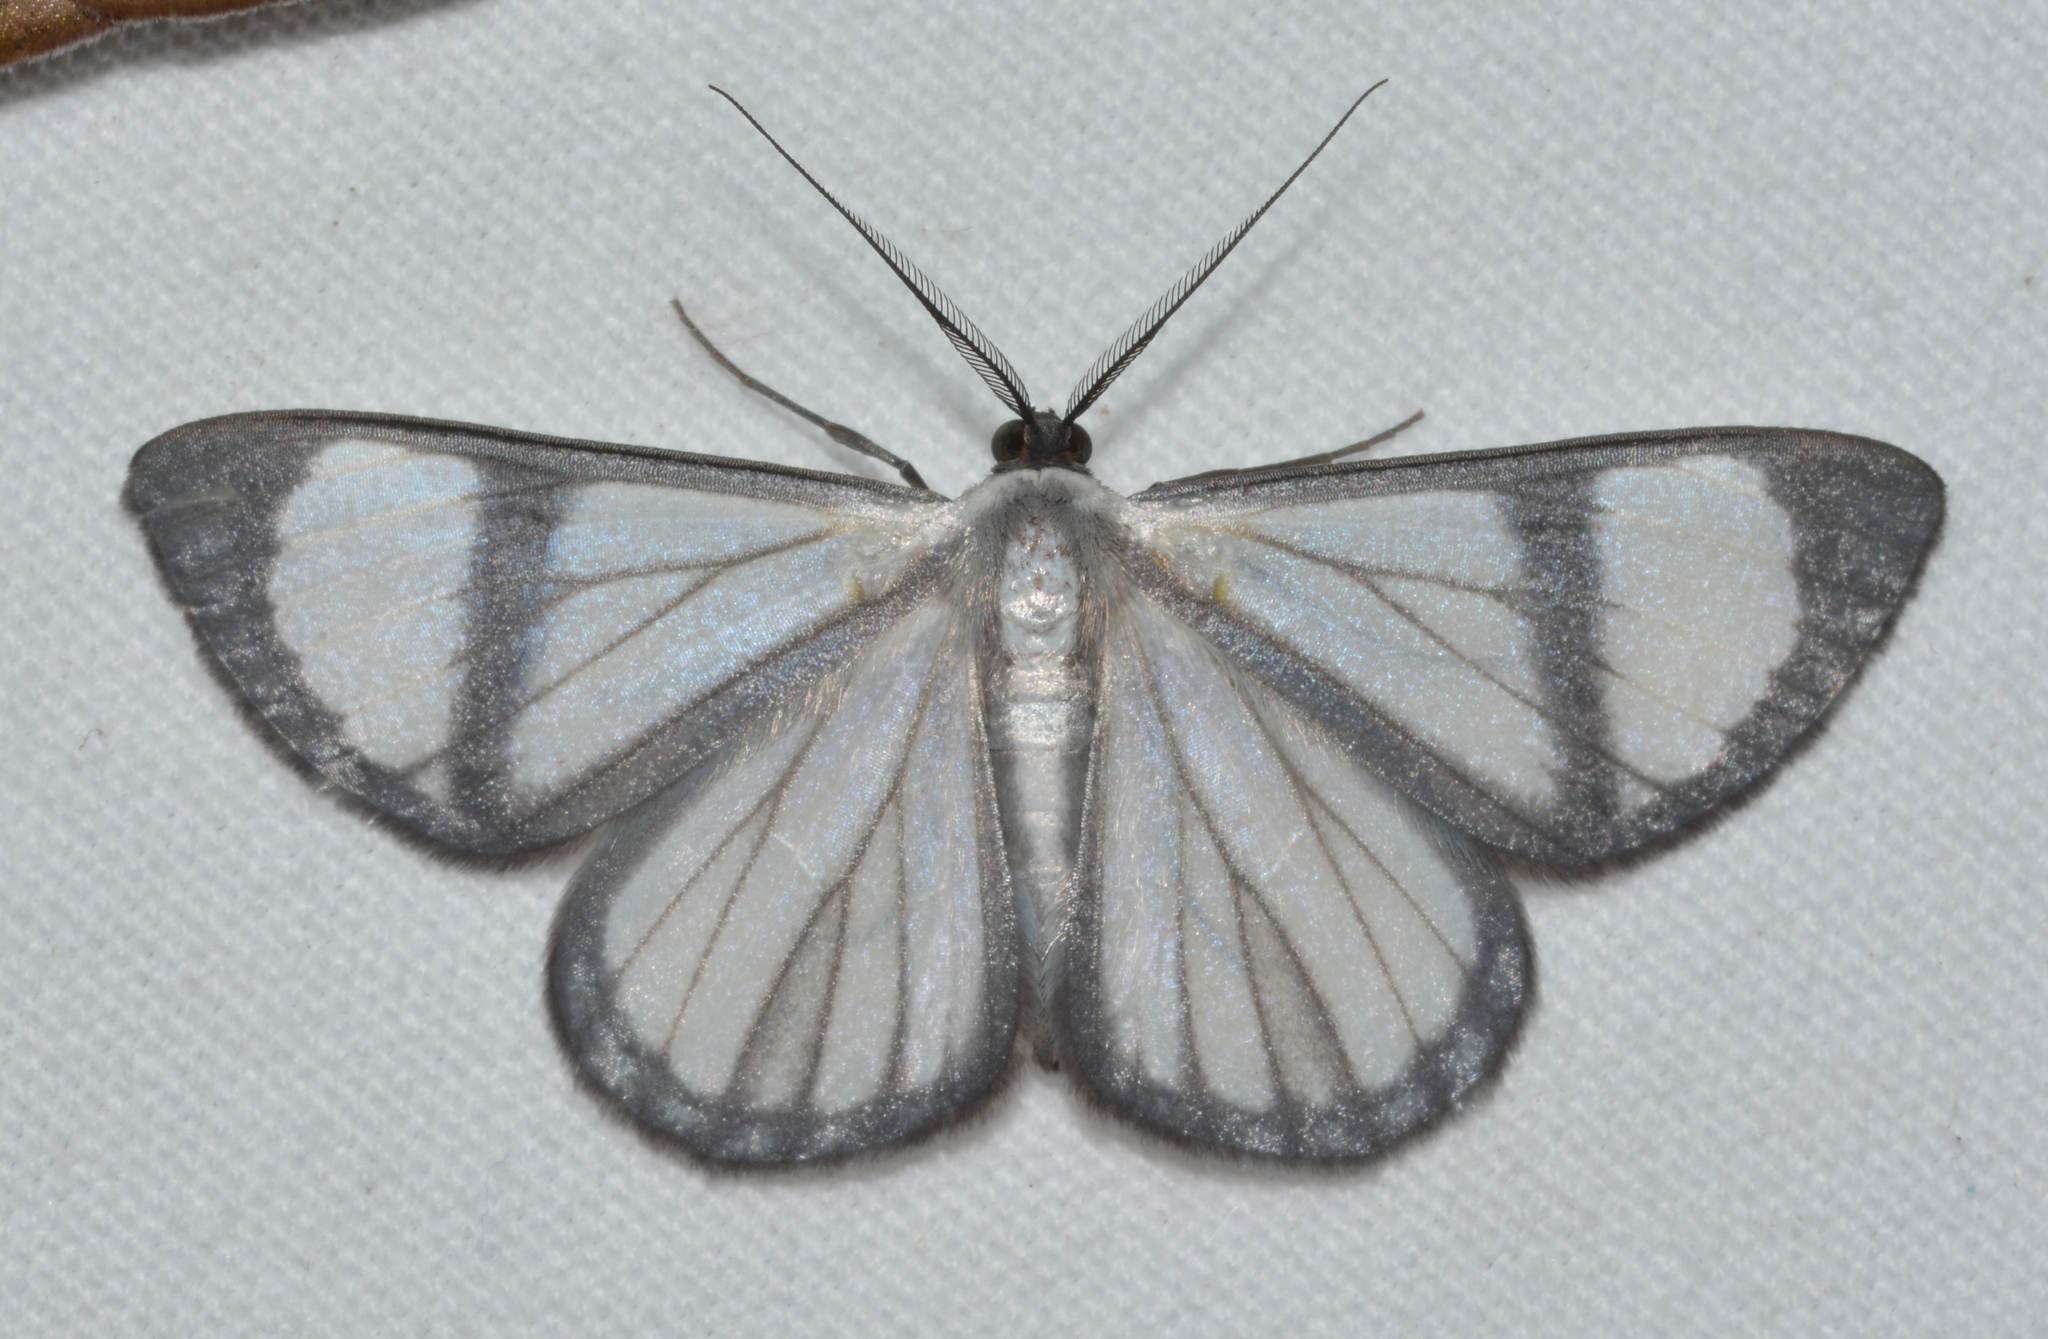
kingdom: Animalia
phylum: Arthropoda
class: Insecta
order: Lepidoptera
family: Geometridae
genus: Perigramma
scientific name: Perigramma vicina
